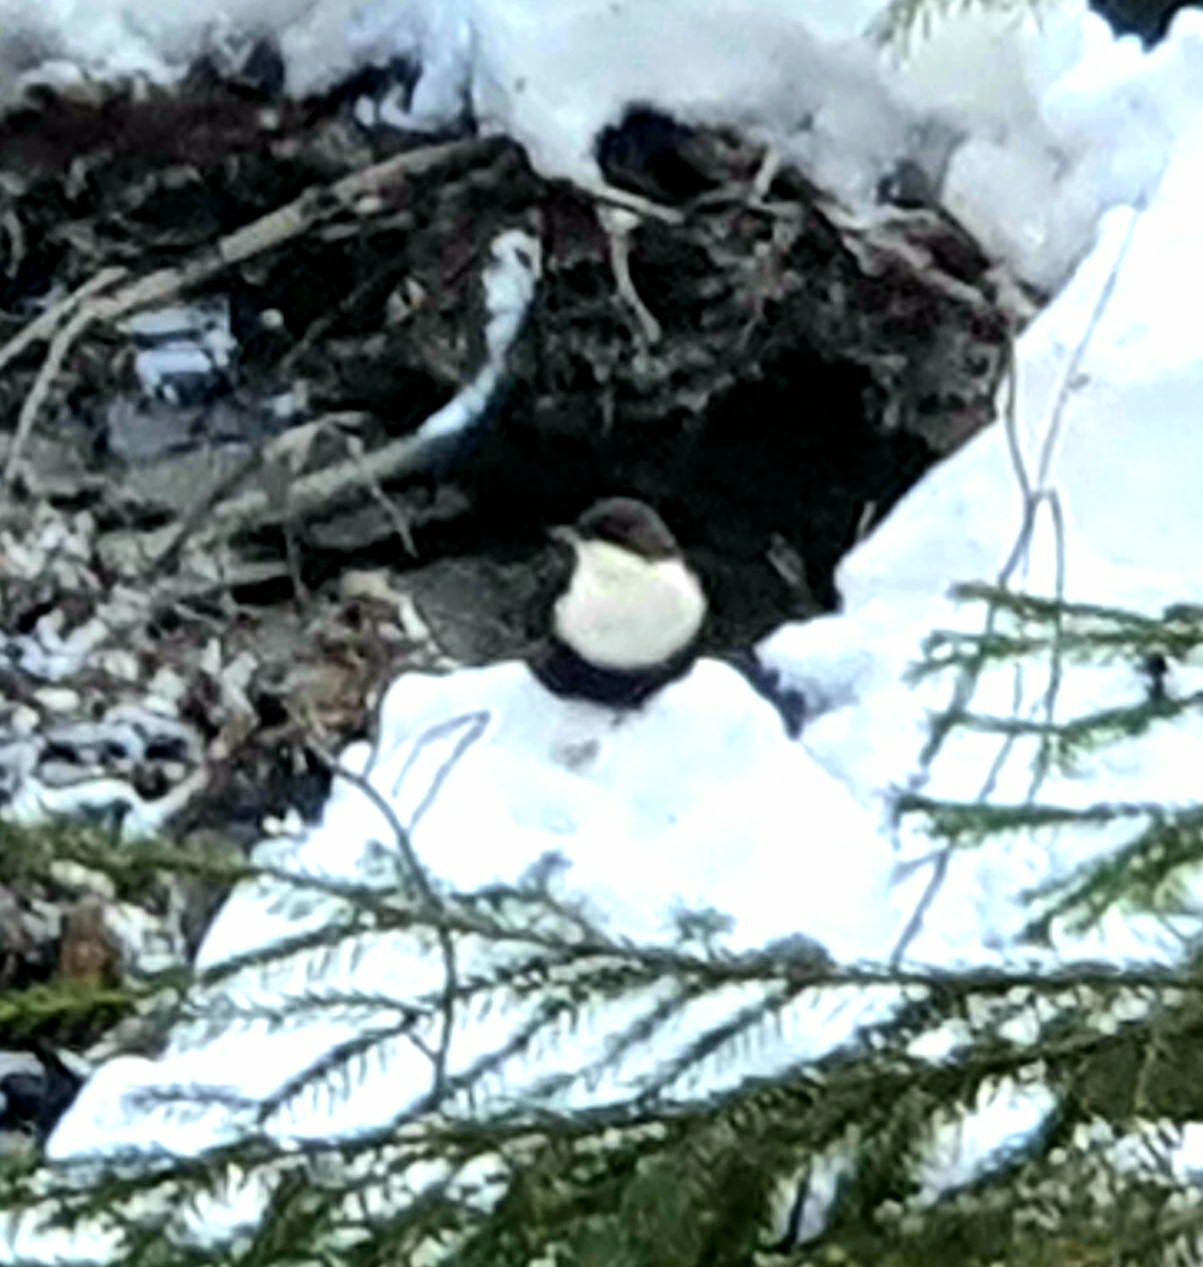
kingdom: Animalia
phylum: Chordata
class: Aves
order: Passeriformes
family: Cinclidae
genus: Cinclus
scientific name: Cinclus cinclus
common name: White-throated dipper
